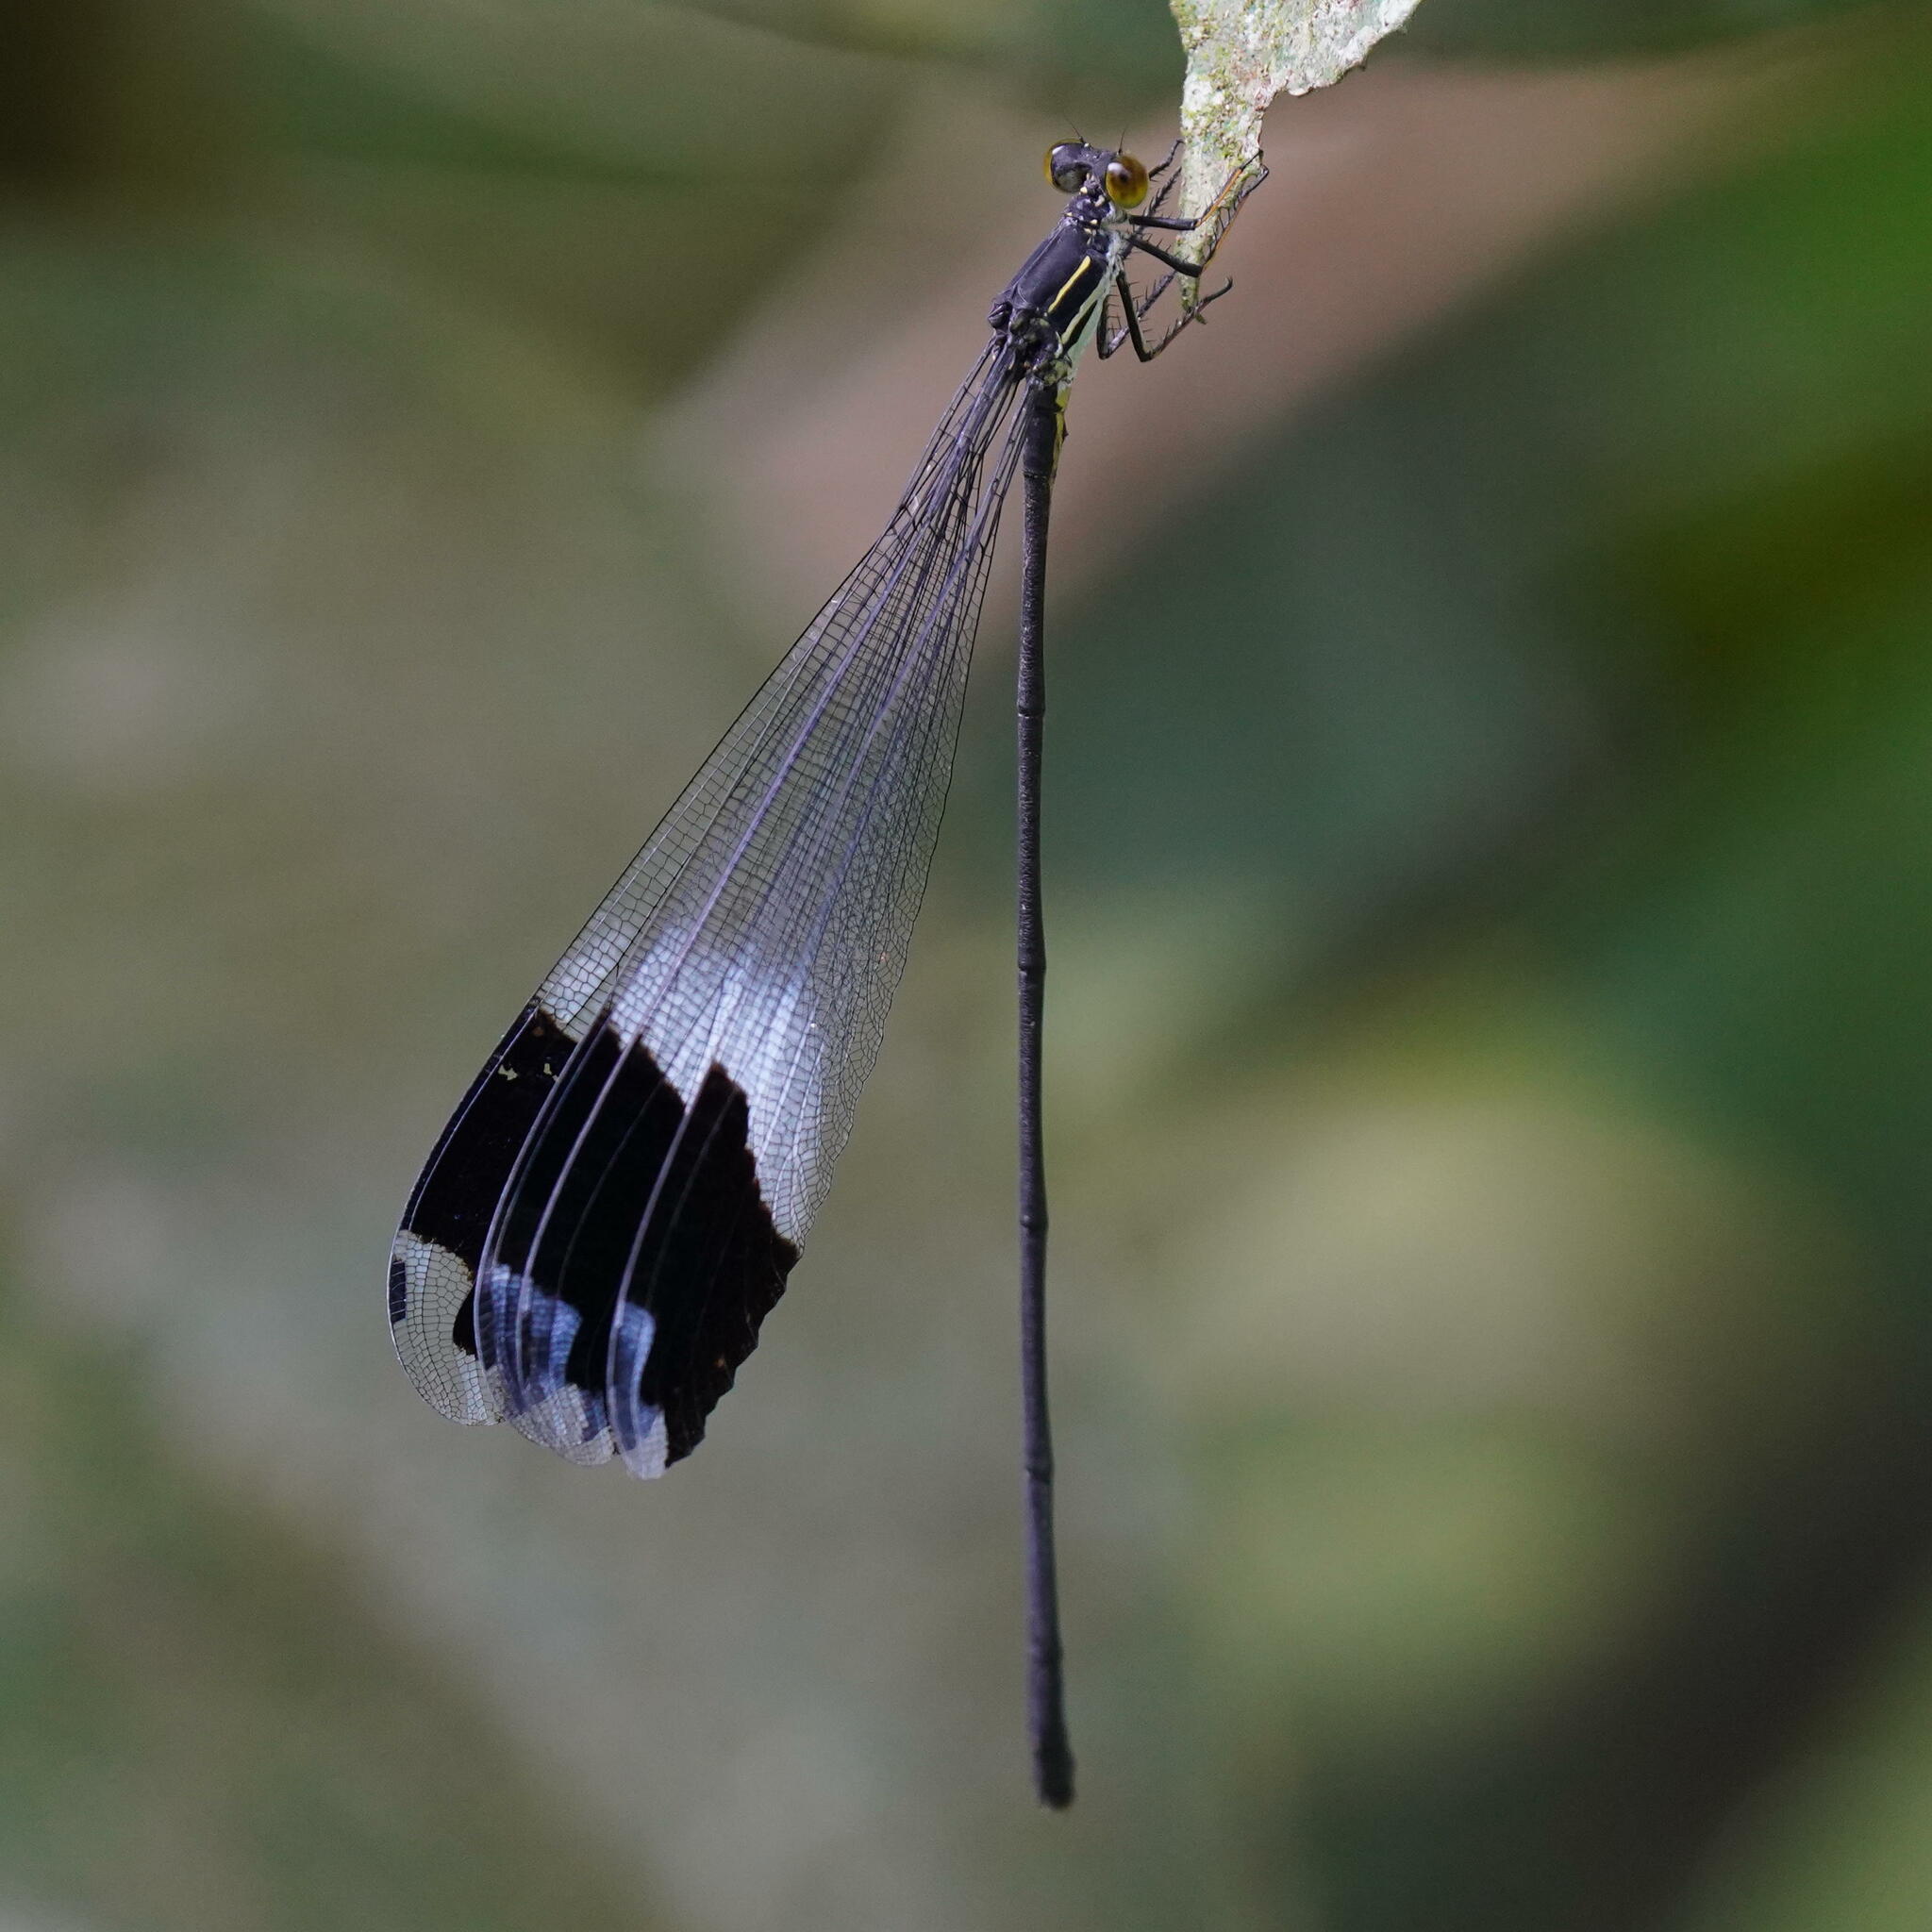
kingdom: Animalia
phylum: Arthropoda
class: Insecta
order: Odonata
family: Coenagrionidae
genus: Megaloprepus
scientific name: Megaloprepus caerulatus
